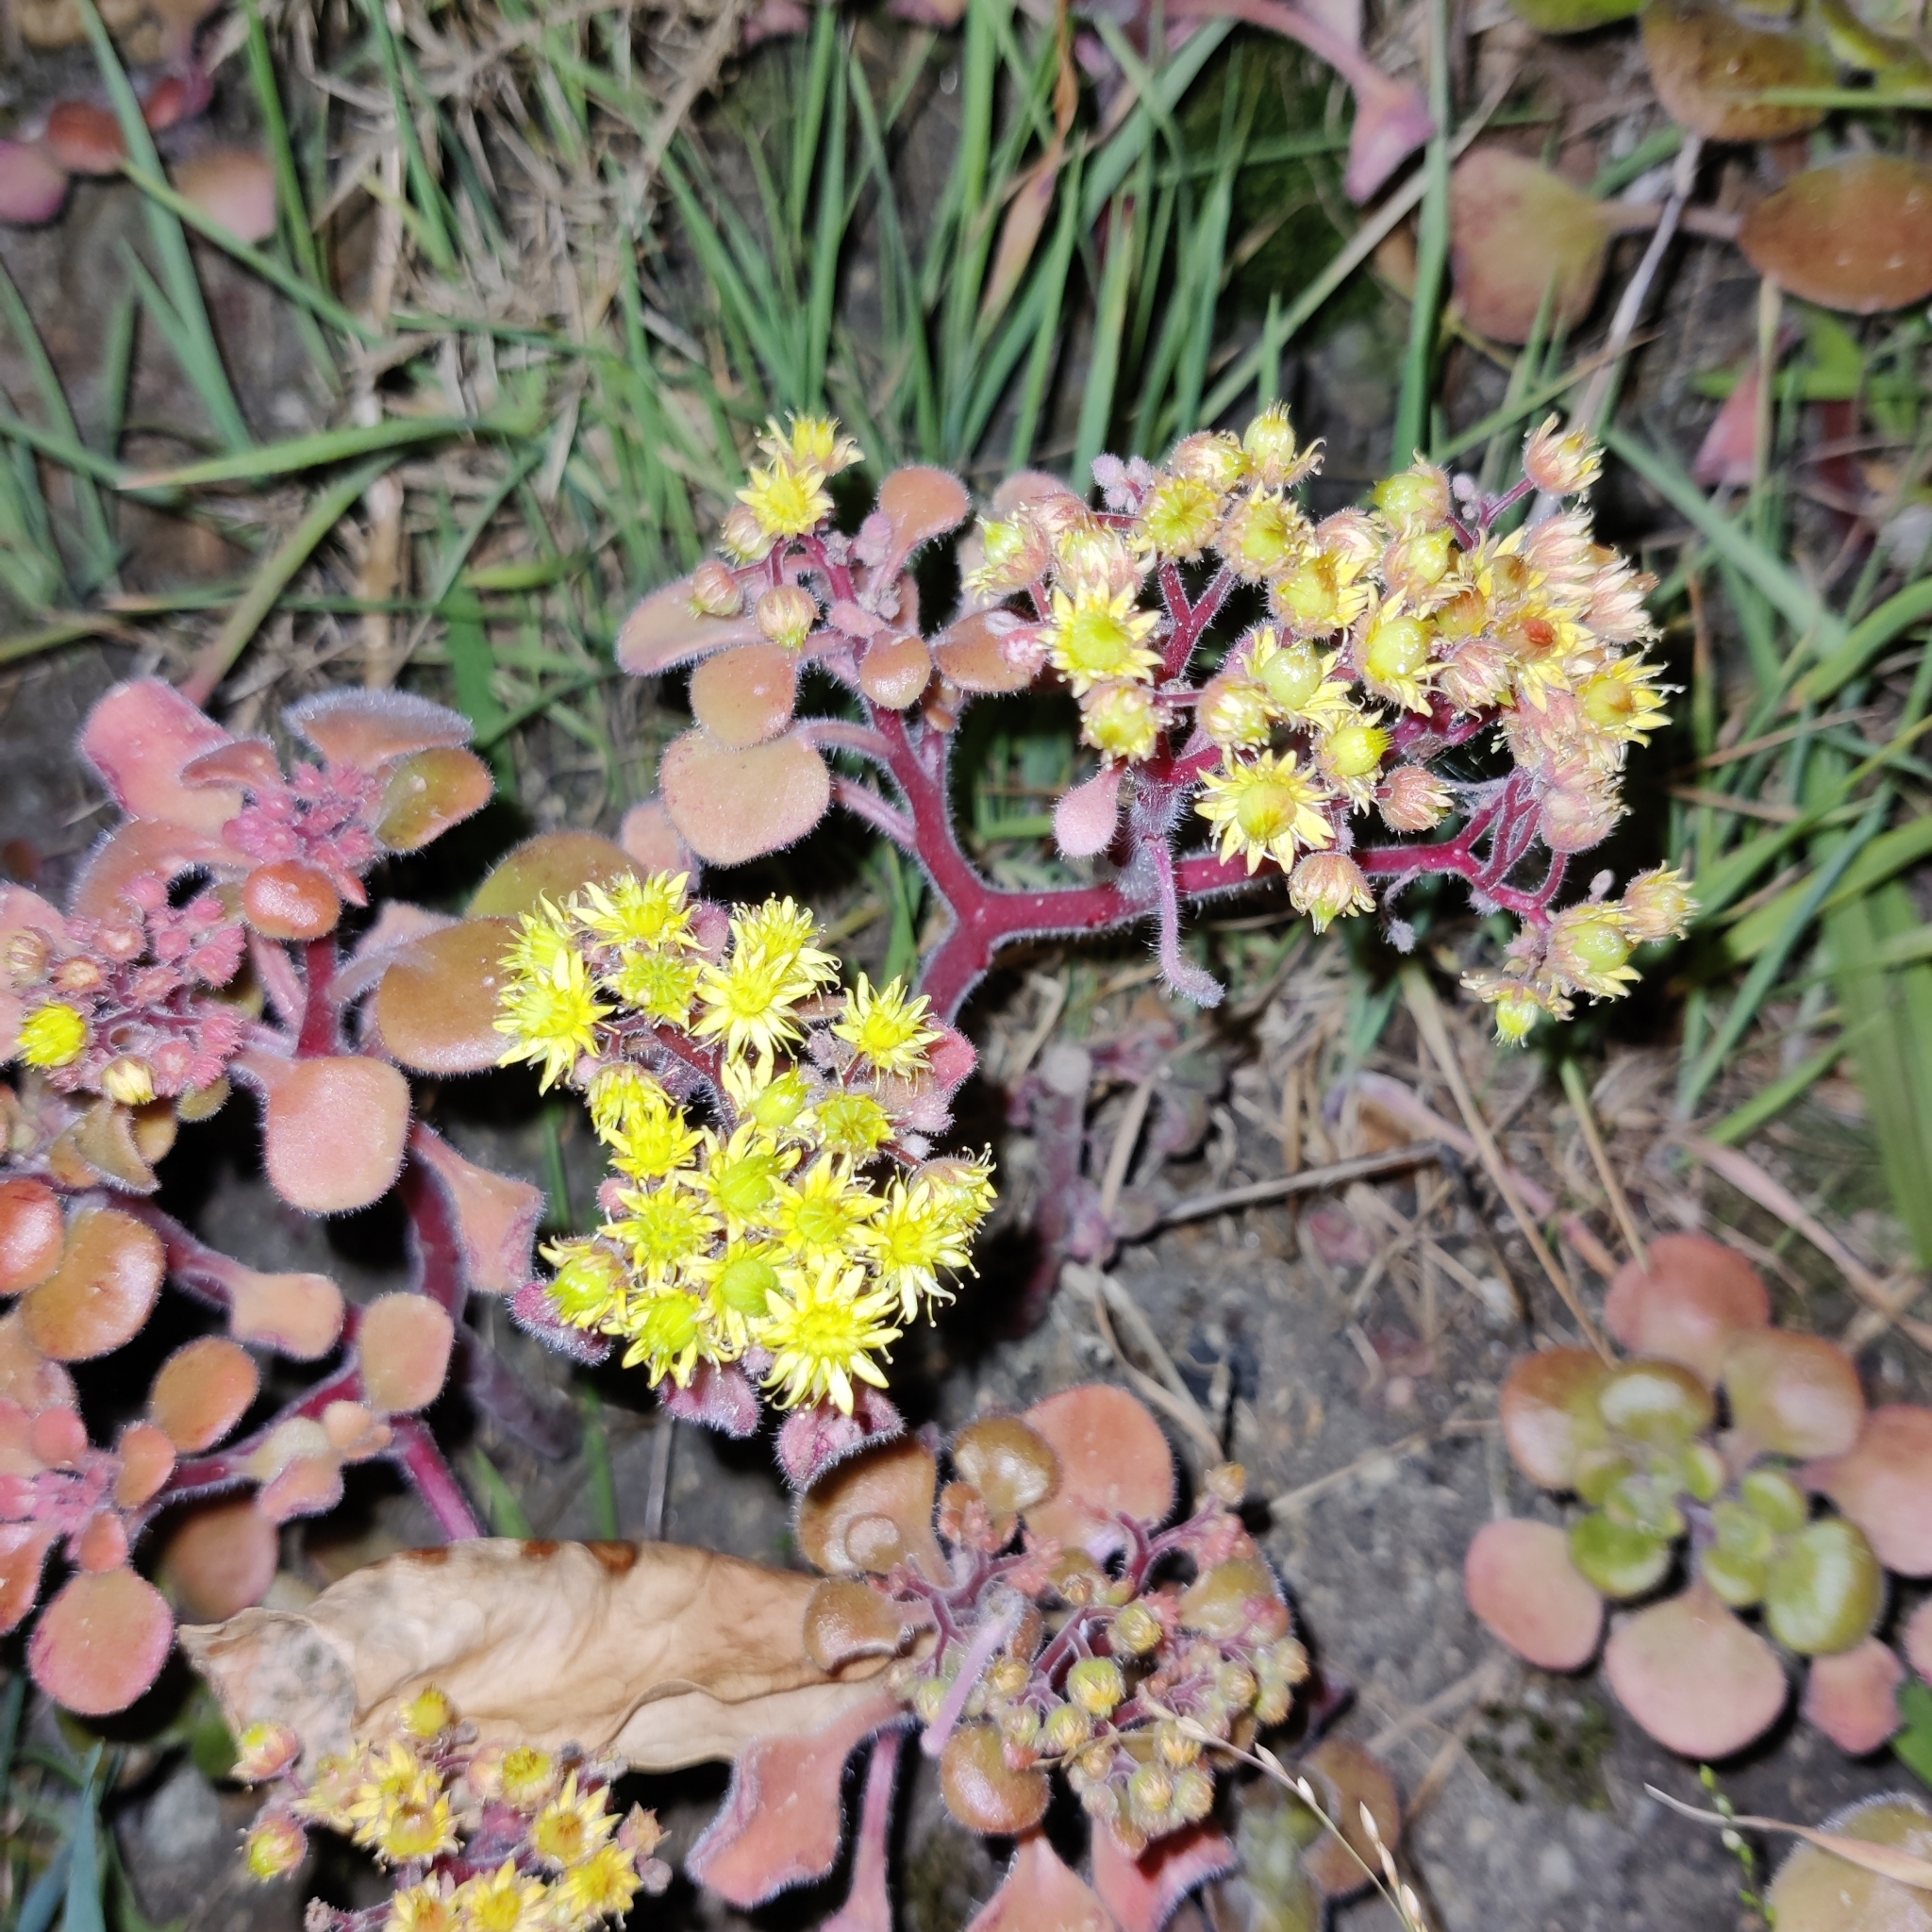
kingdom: Plantae
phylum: Tracheophyta
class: Magnoliopsida
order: Saxifragales
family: Crassulaceae
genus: Aichryson
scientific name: Aichryson laxum
